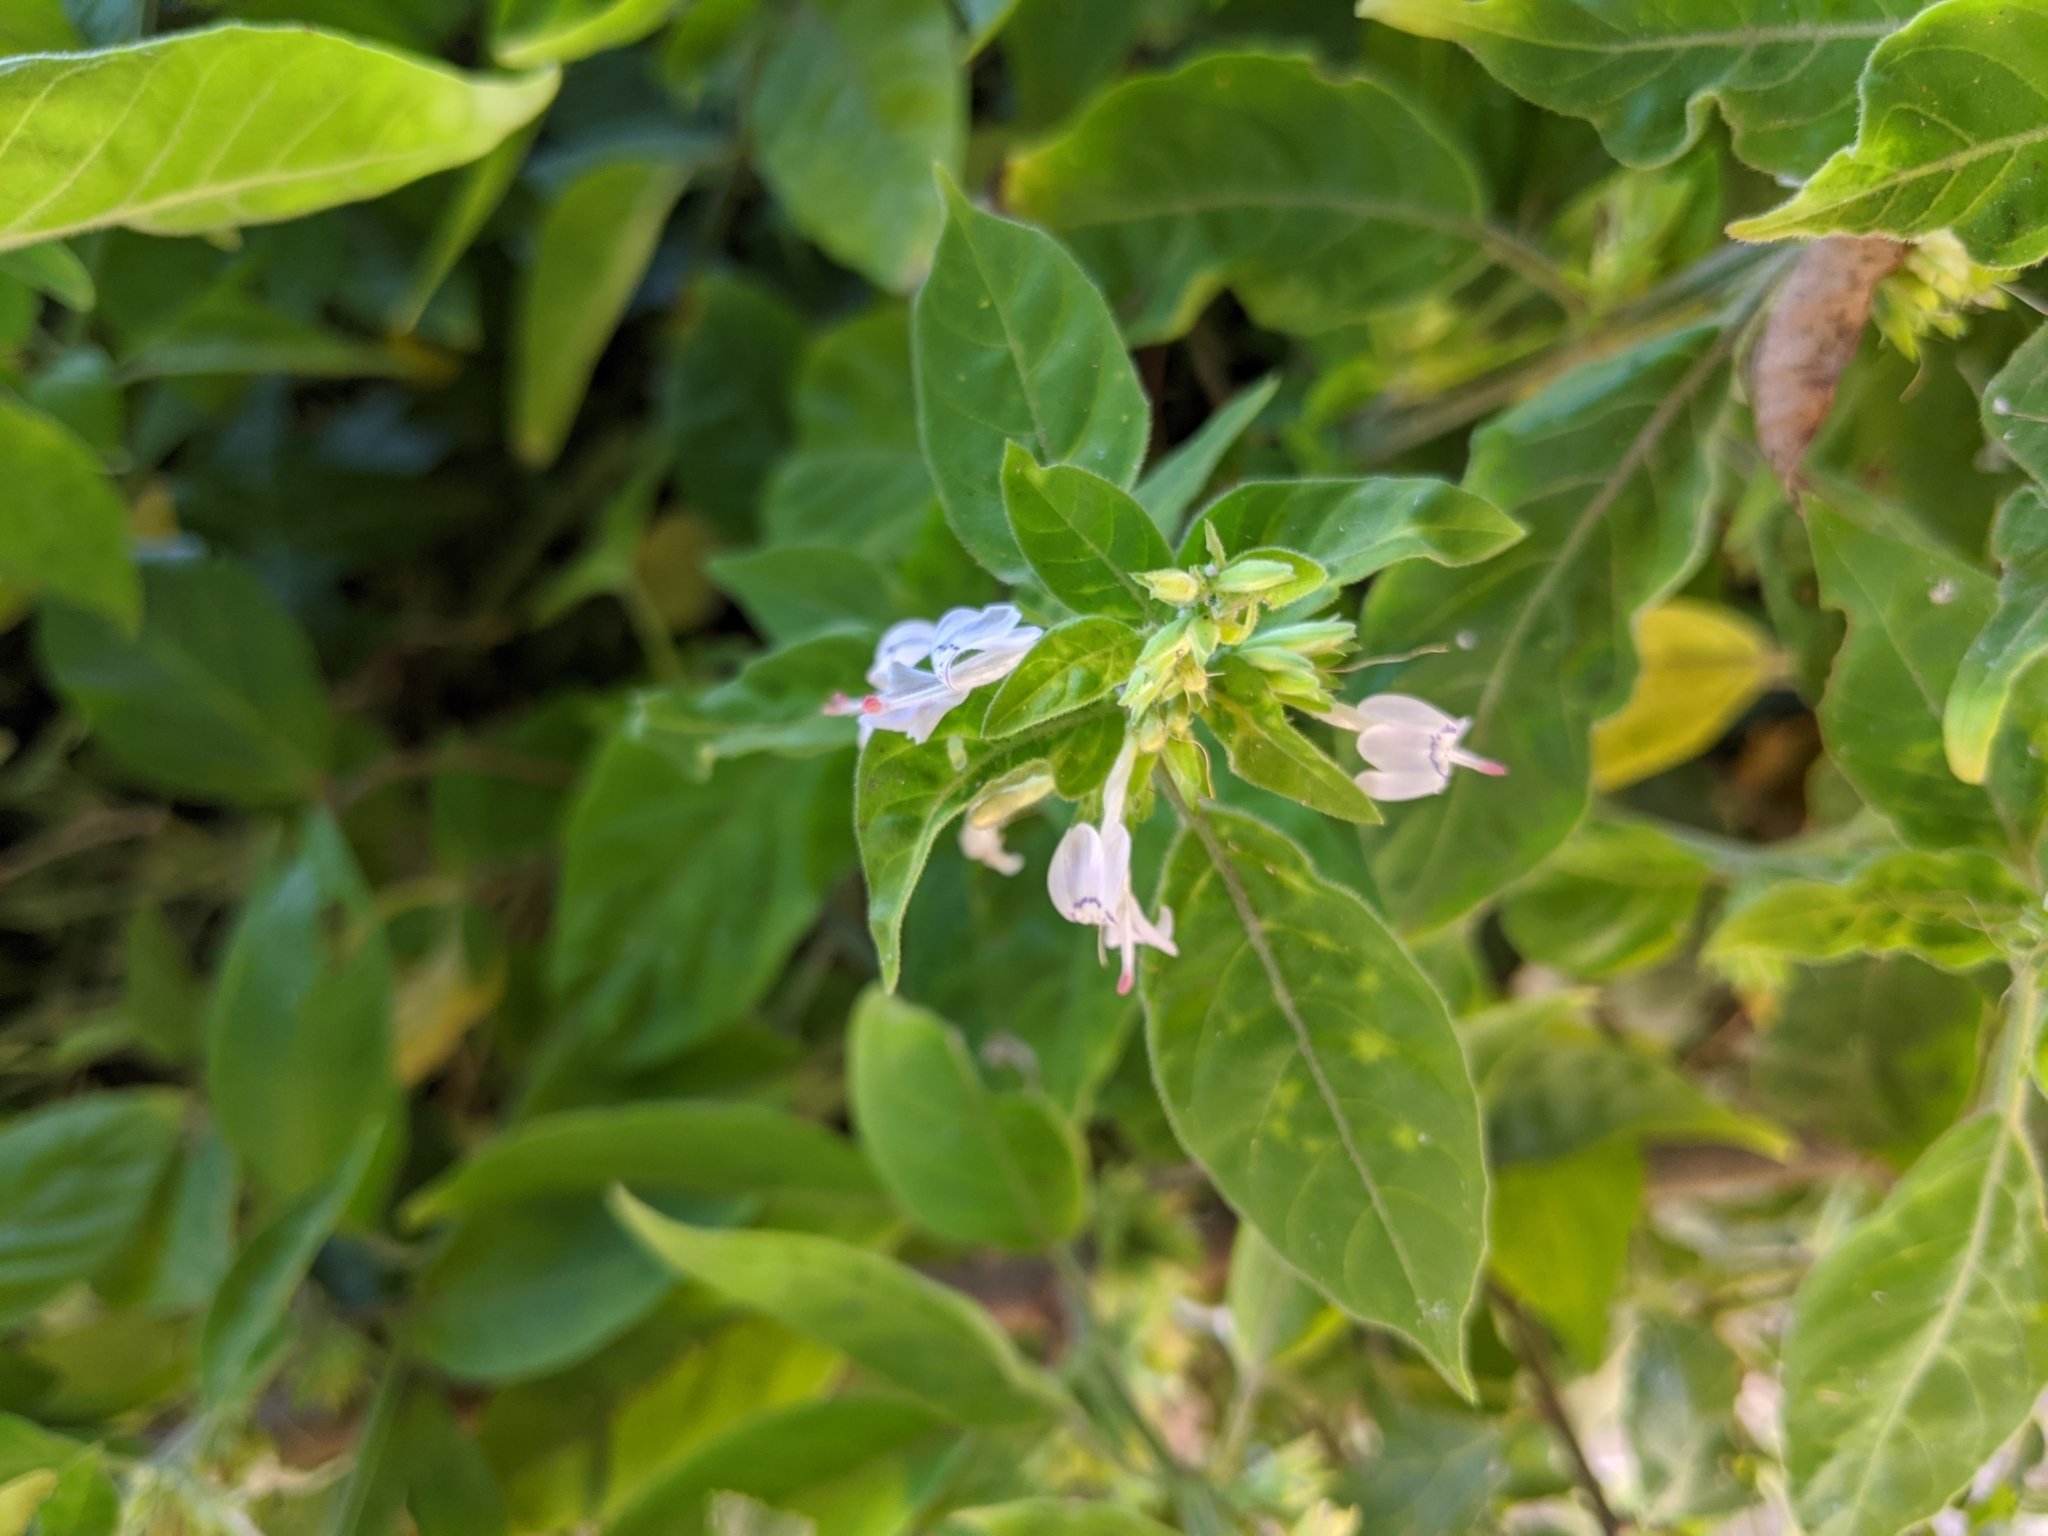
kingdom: Plantae
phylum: Tracheophyta
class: Magnoliopsida
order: Lamiales
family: Acanthaceae
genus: Hypoestes
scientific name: Hypoestes forskaolii
